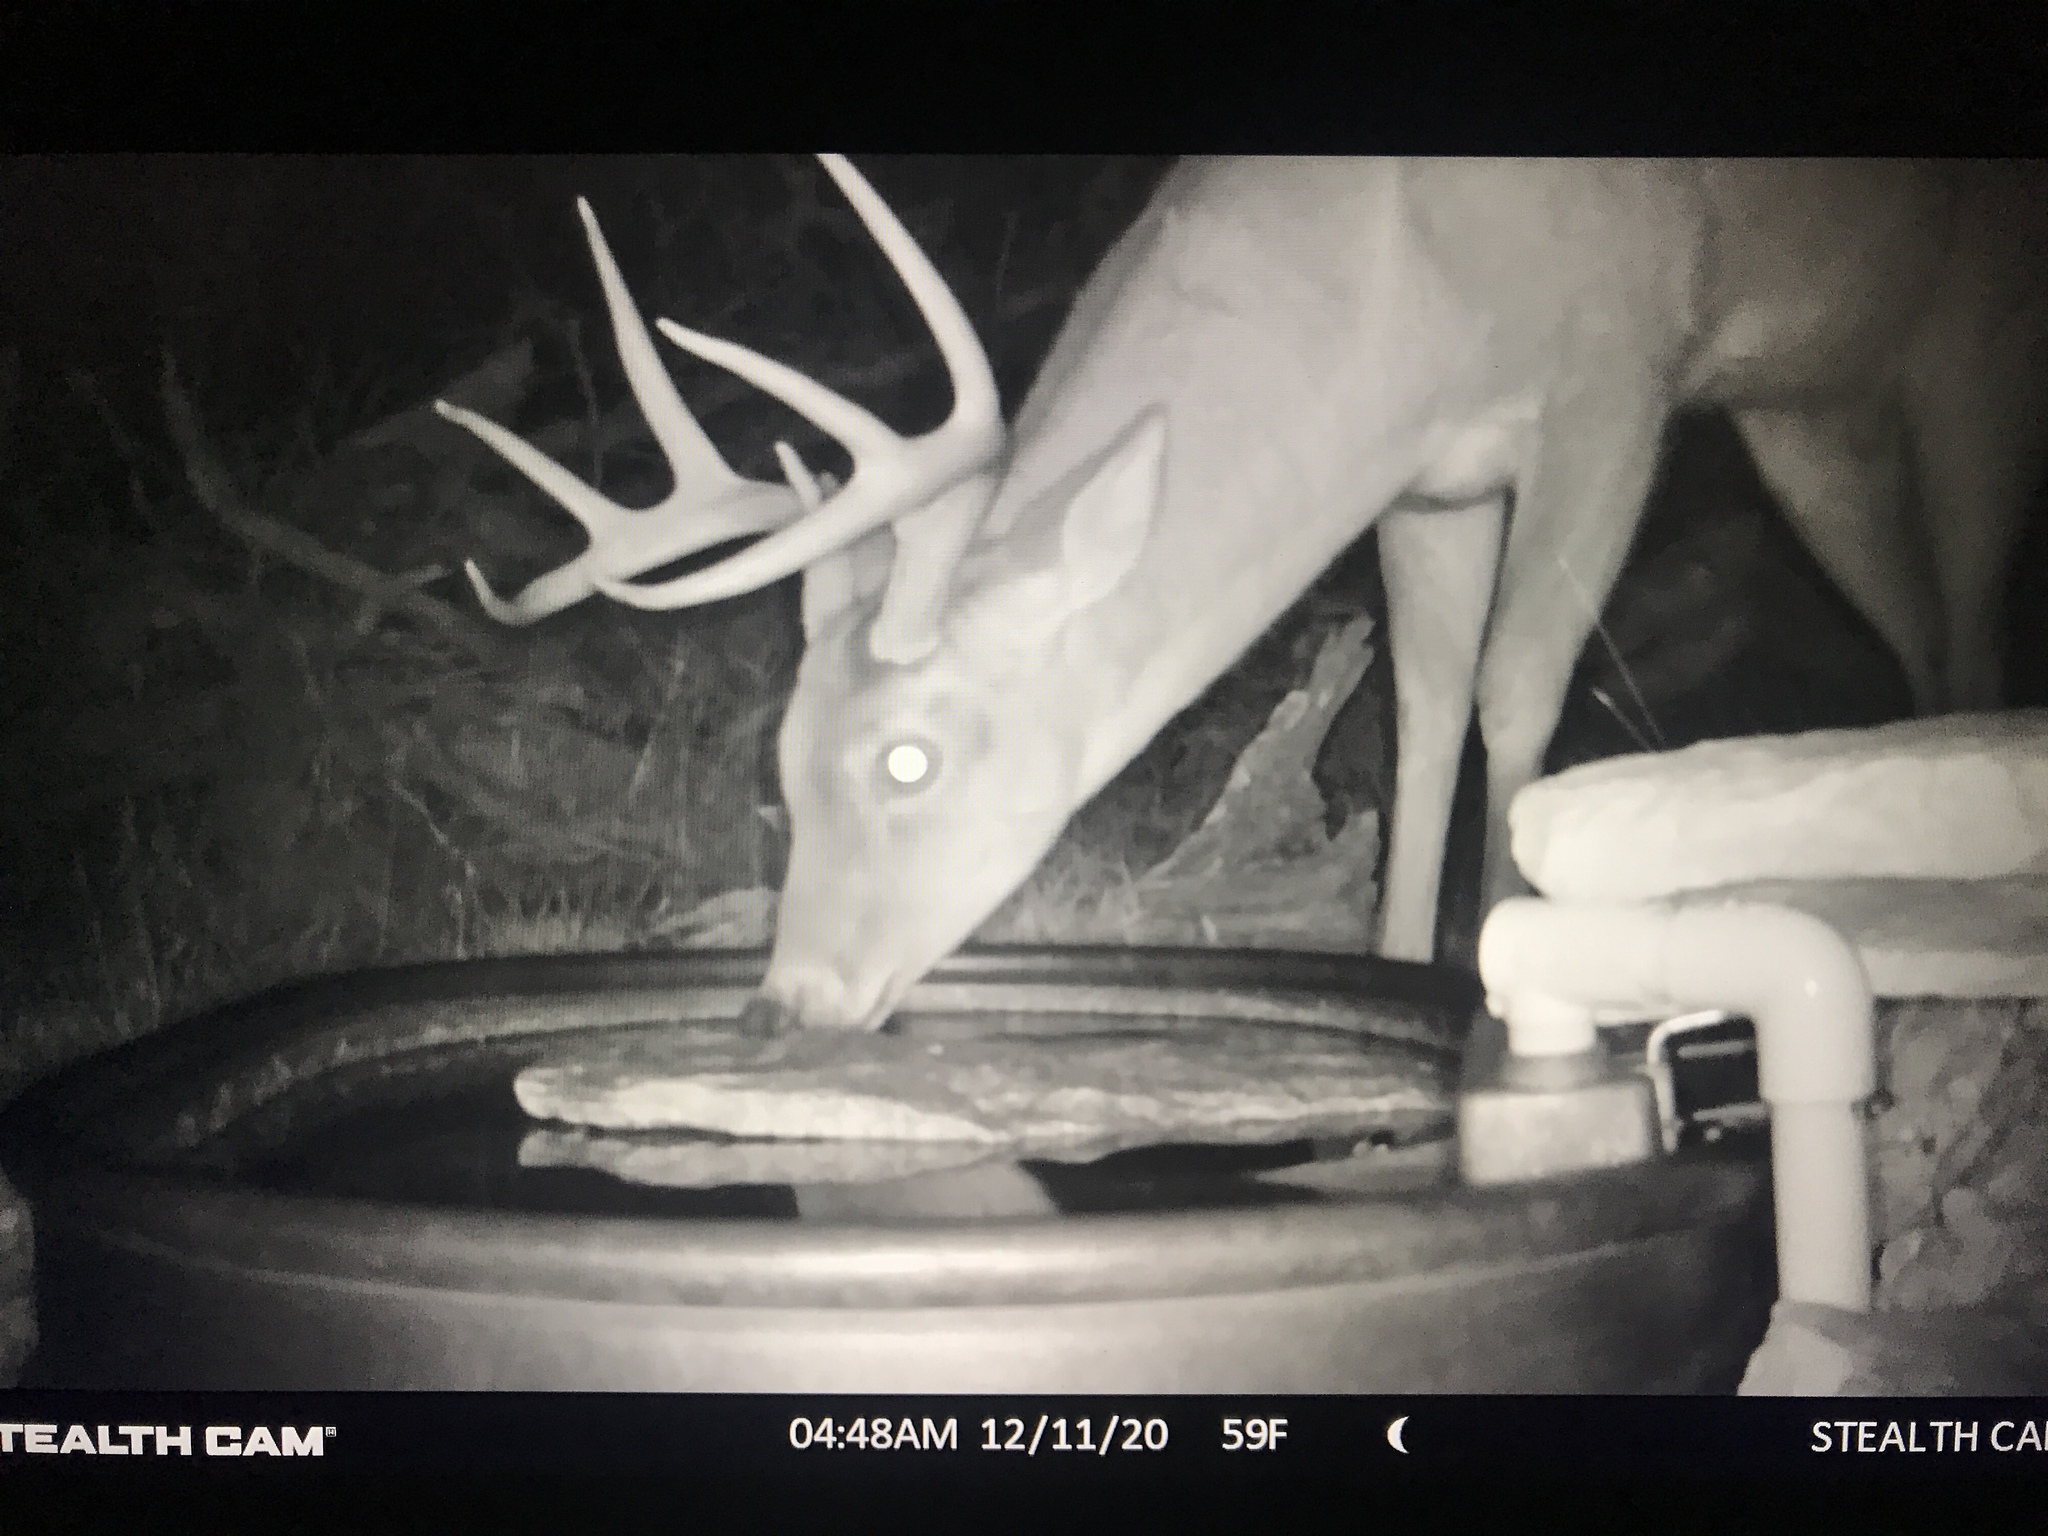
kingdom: Animalia
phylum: Chordata
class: Mammalia
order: Artiodactyla
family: Cervidae
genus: Odocoileus
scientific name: Odocoileus virginianus
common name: White-tailed deer
